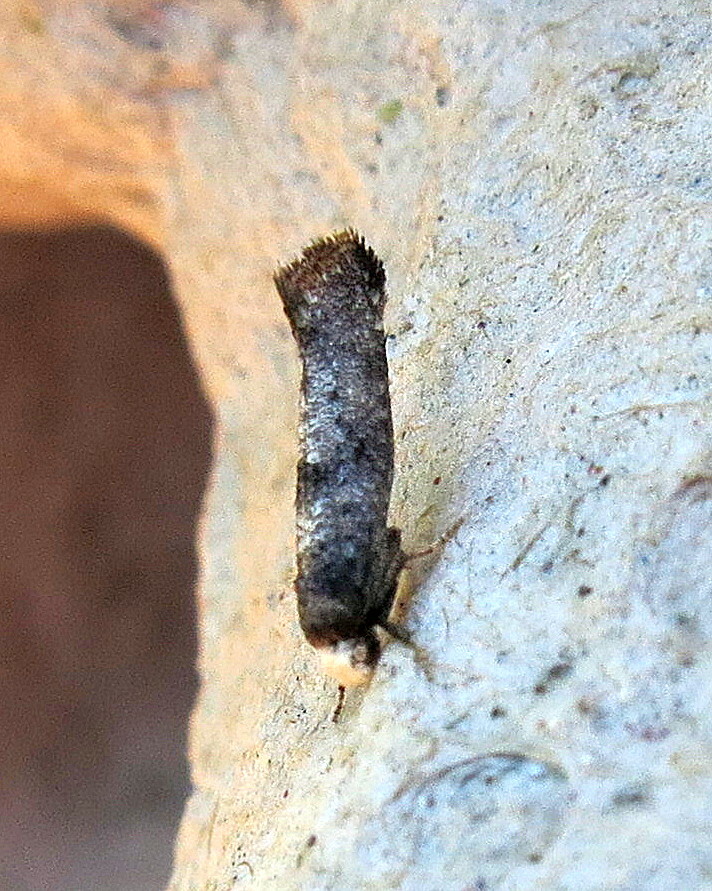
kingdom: Animalia
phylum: Arthropoda
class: Insecta
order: Lepidoptera
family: Yponomeutidae
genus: Swammerdamia
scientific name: Swammerdamia pyrella
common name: Little ermine moth
